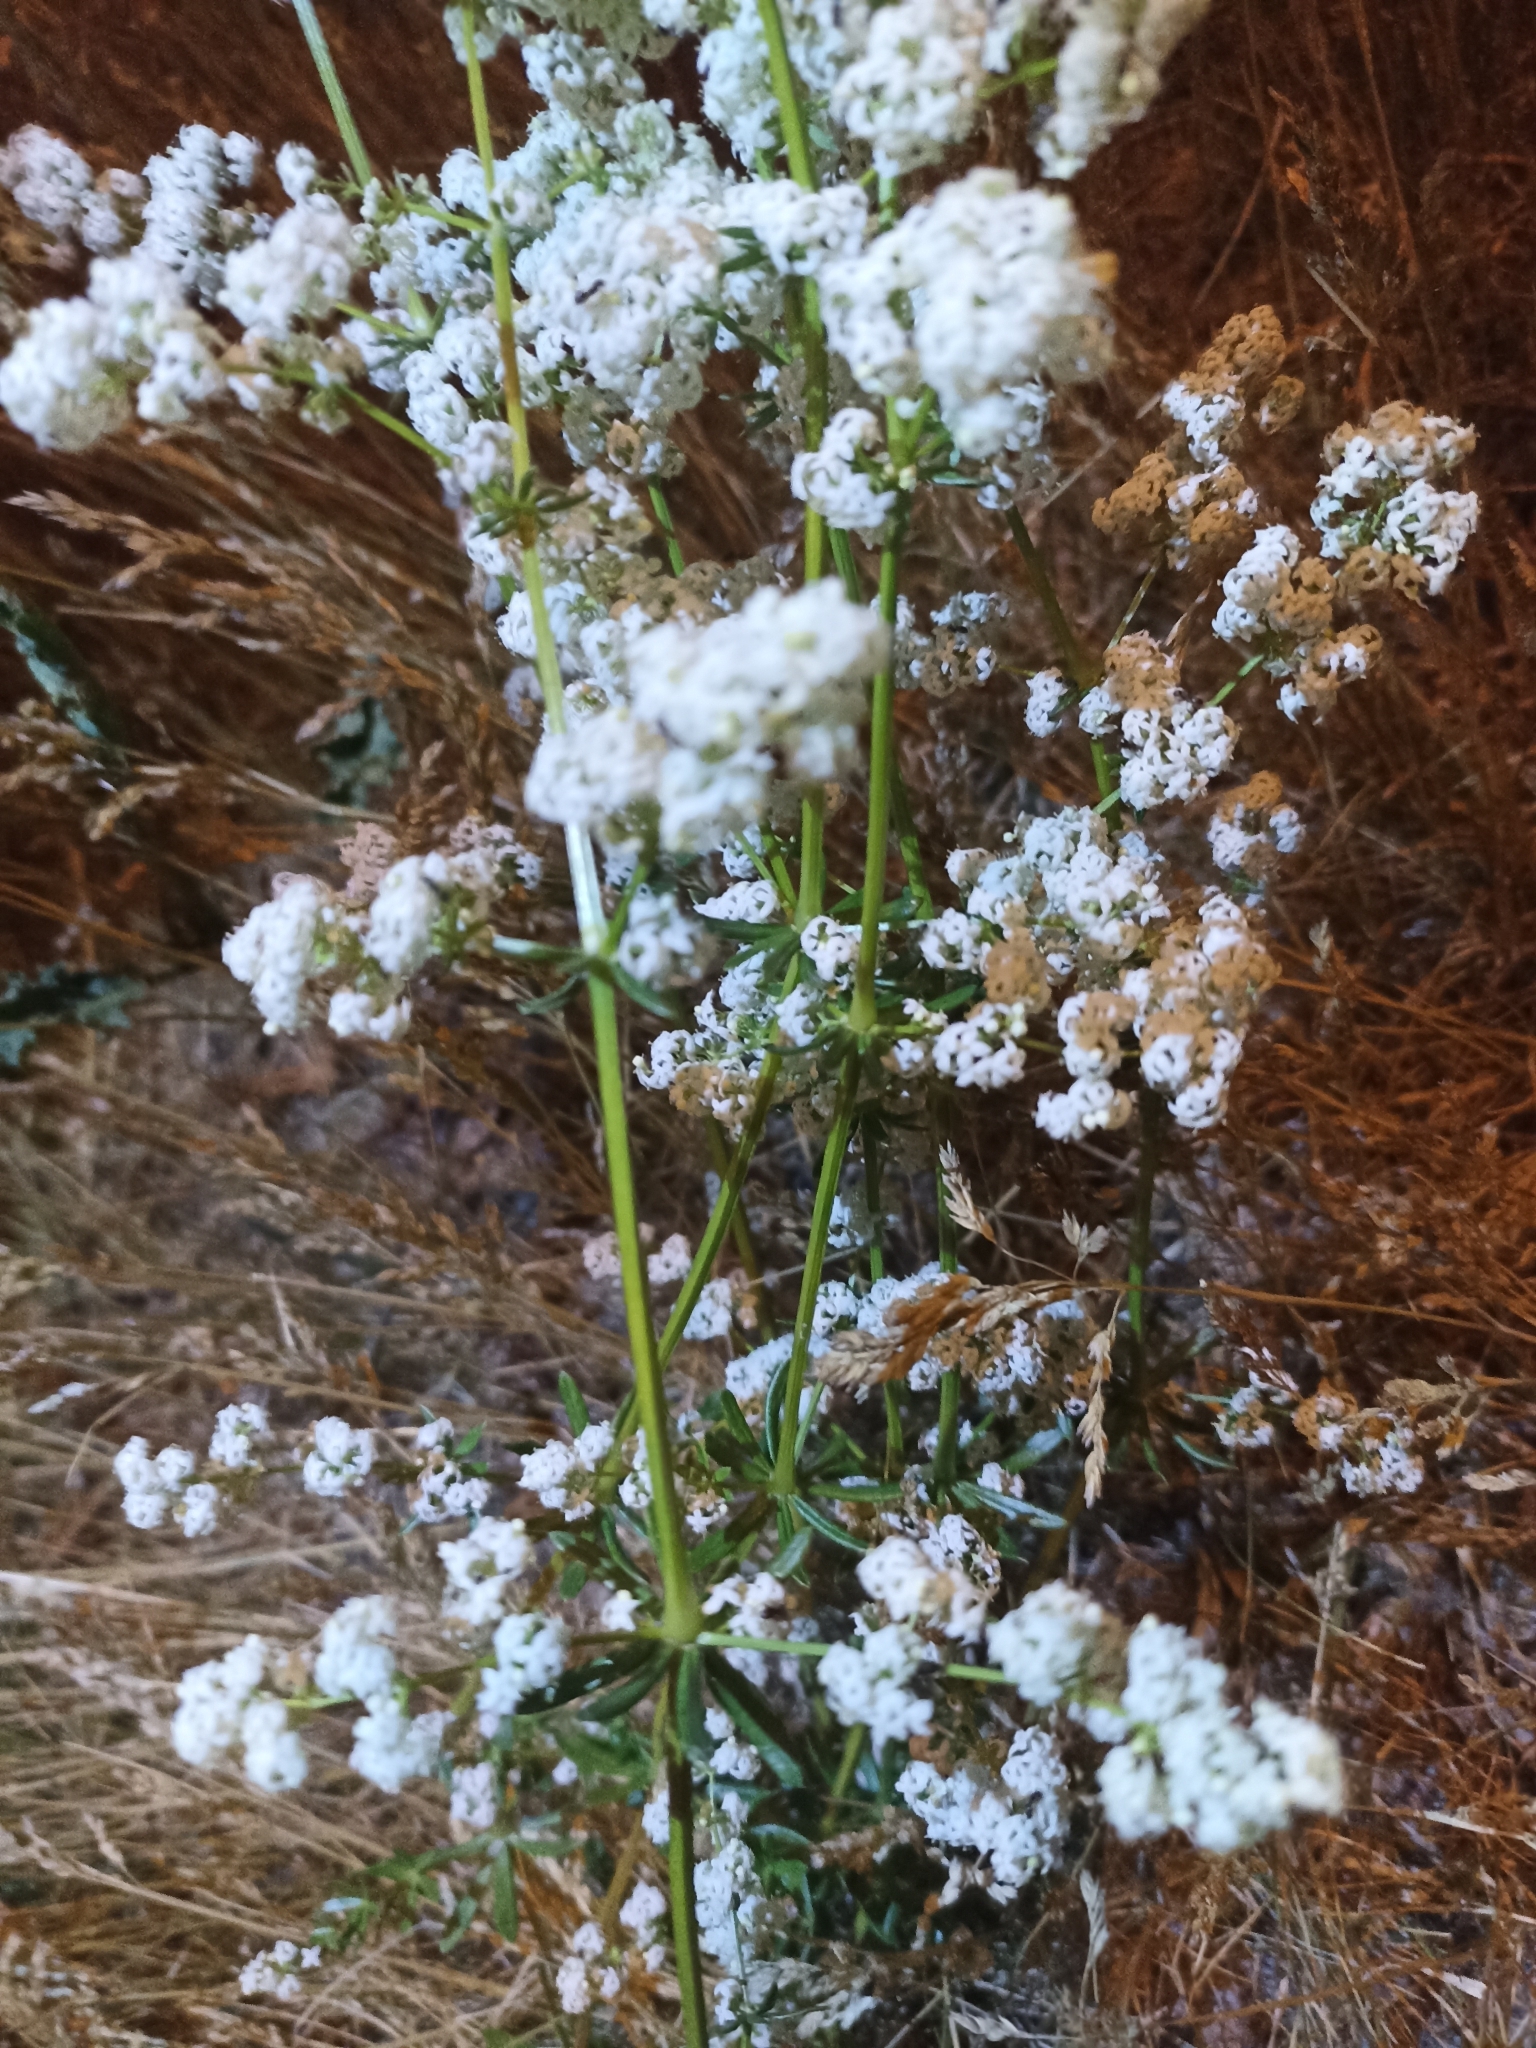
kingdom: Plantae
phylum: Tracheophyta
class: Magnoliopsida
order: Gentianales
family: Rubiaceae
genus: Galium
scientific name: Galium mollugo
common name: Hedge bedstraw
